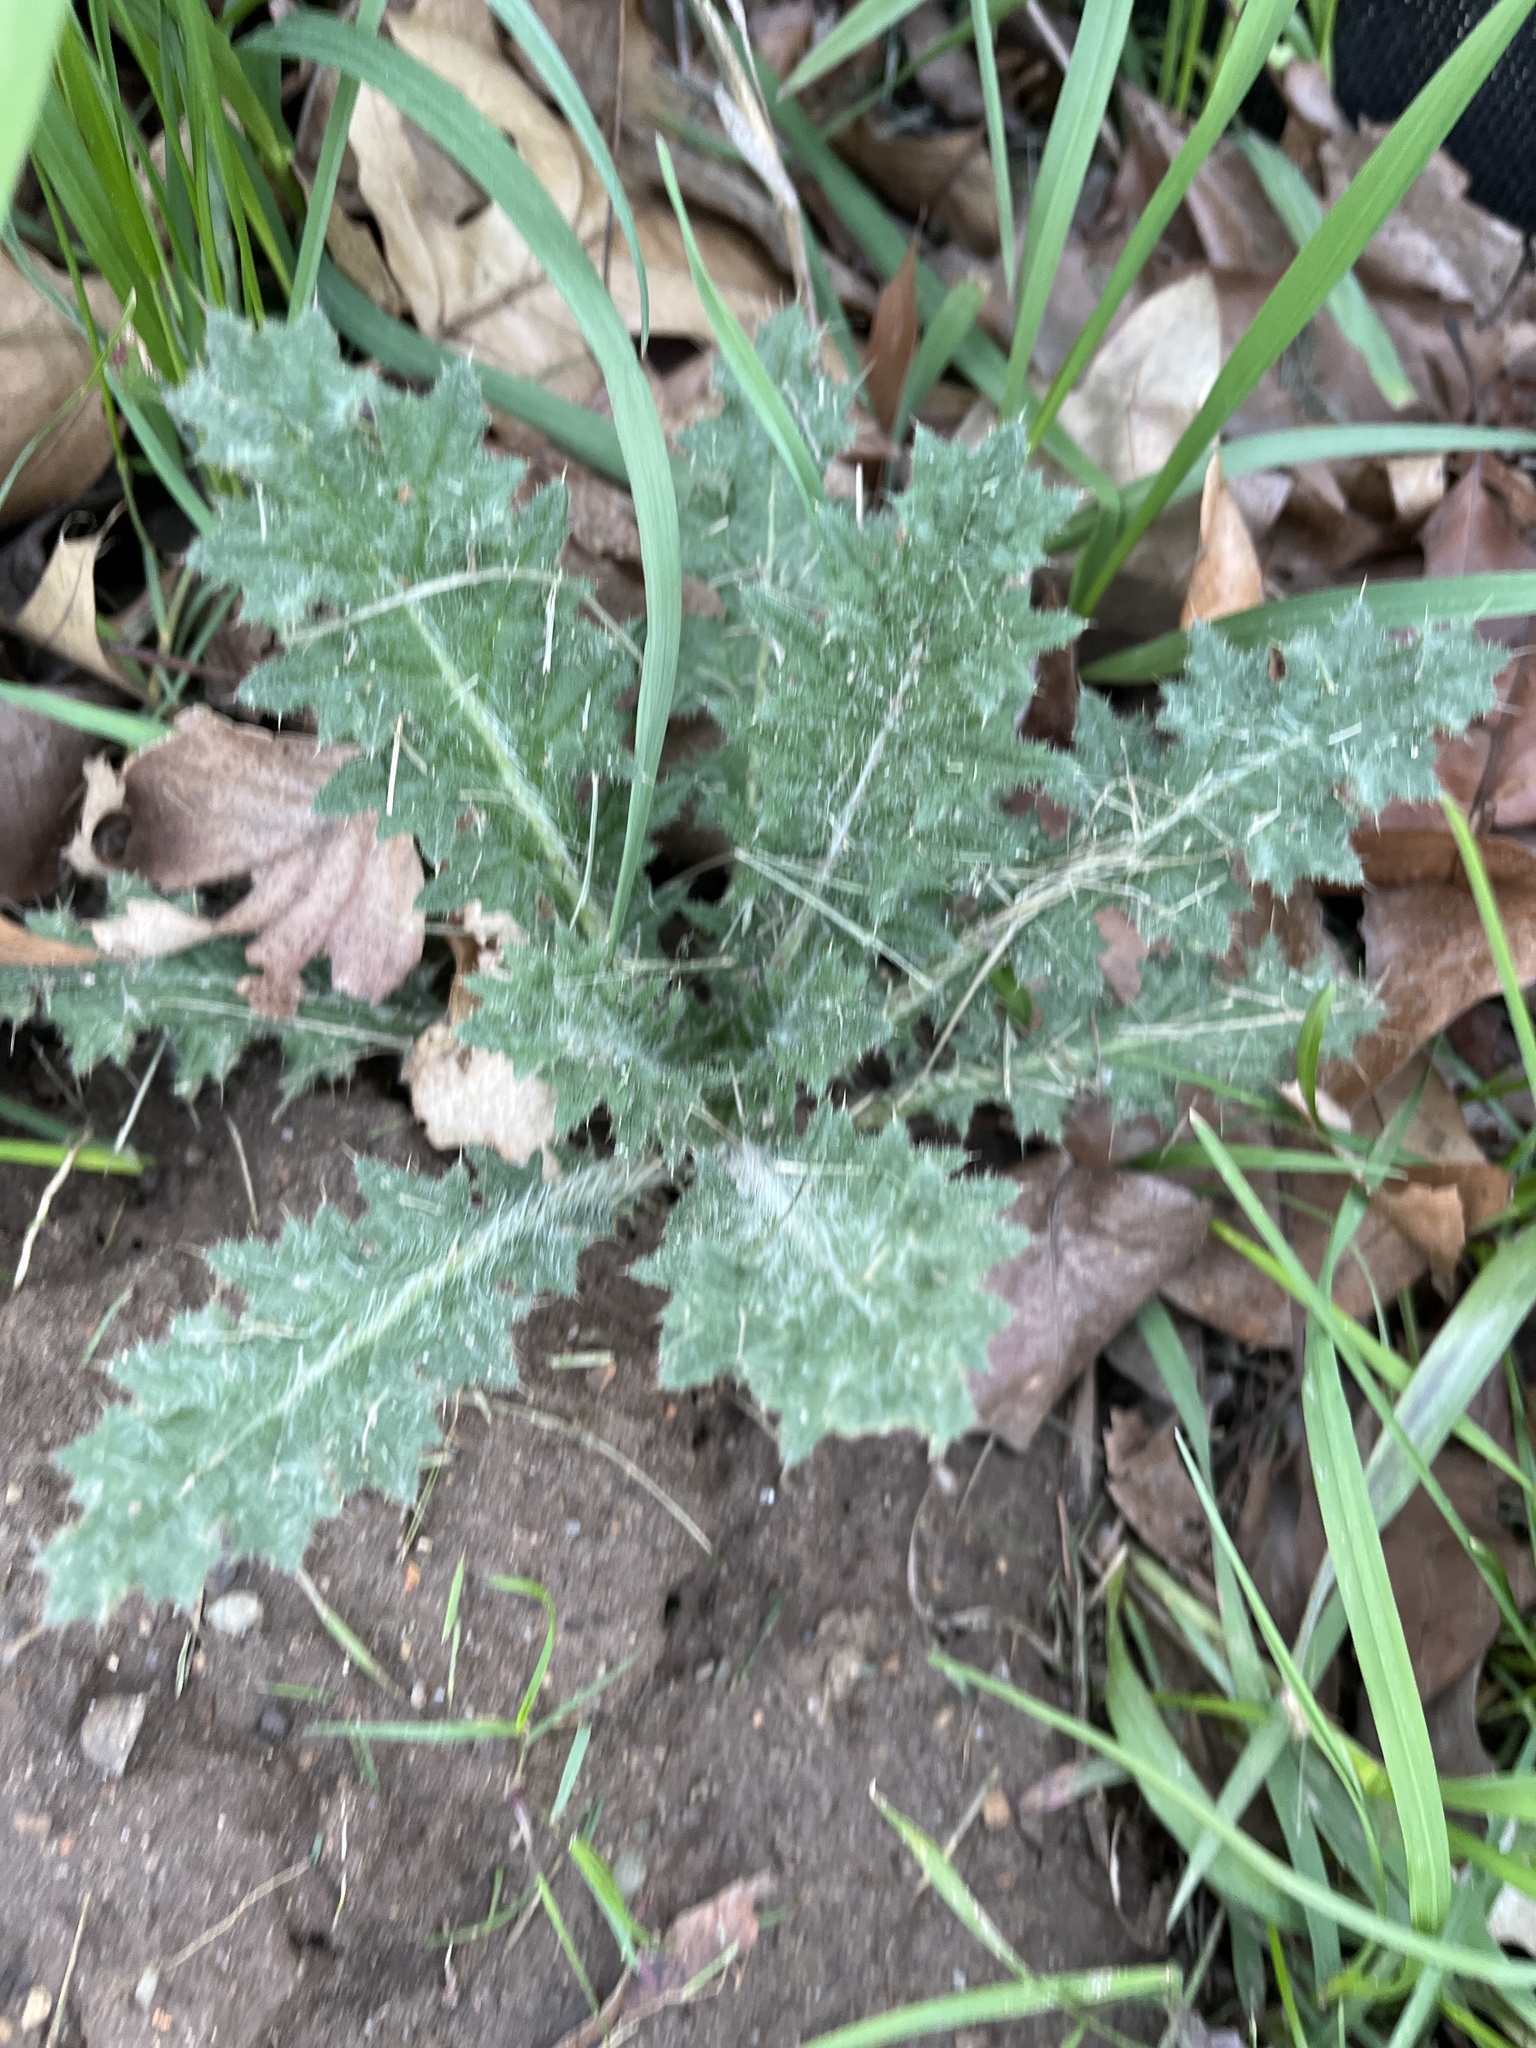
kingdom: Plantae
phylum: Tracheophyta
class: Magnoliopsida
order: Asterales
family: Asteraceae
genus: Cirsium
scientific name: Cirsium vulgare
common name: Bull thistle
